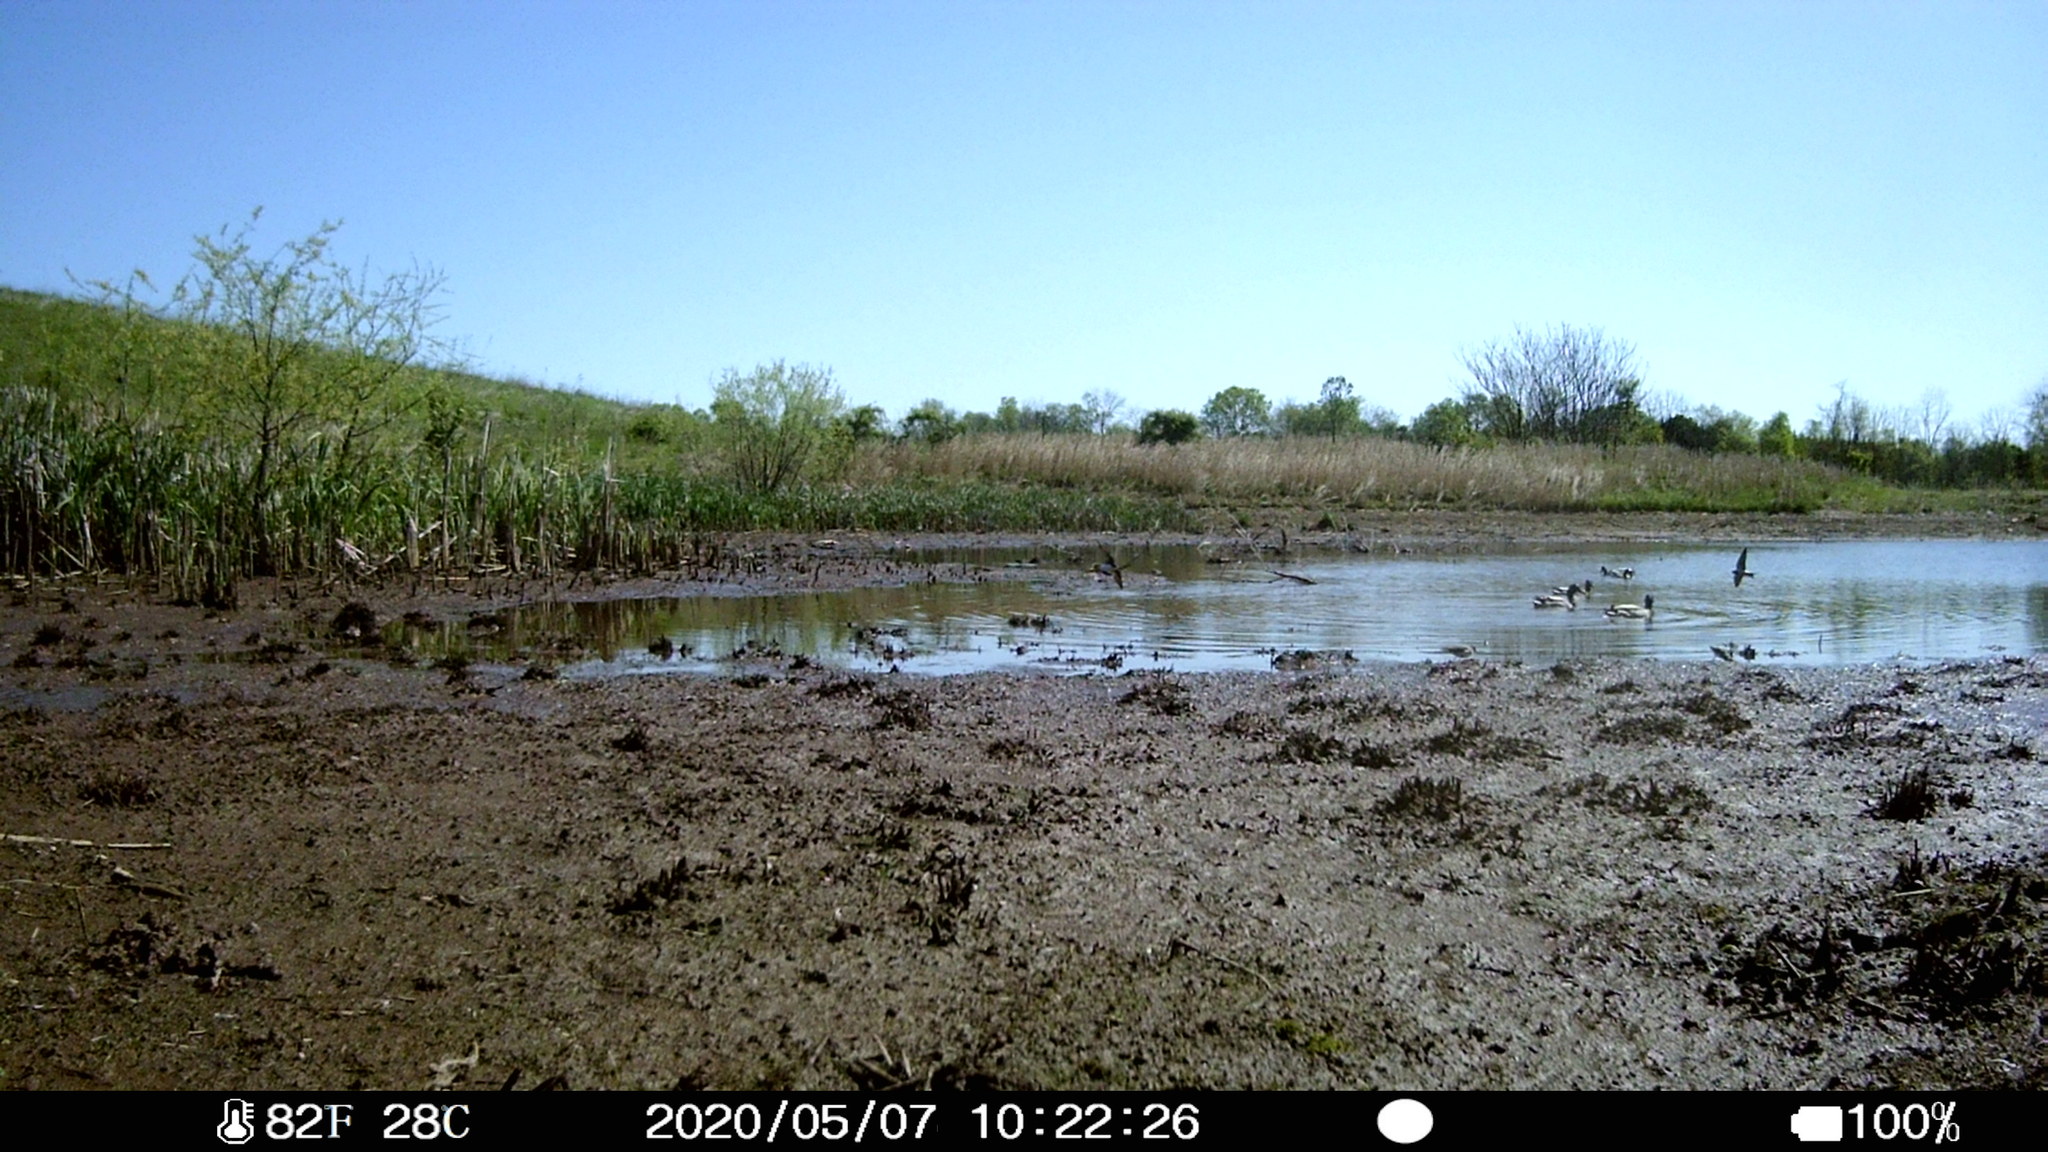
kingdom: Animalia
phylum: Chordata
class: Aves
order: Anseriformes
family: Anatidae
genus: Anas
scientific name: Anas platyrhynchos
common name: Mallard
